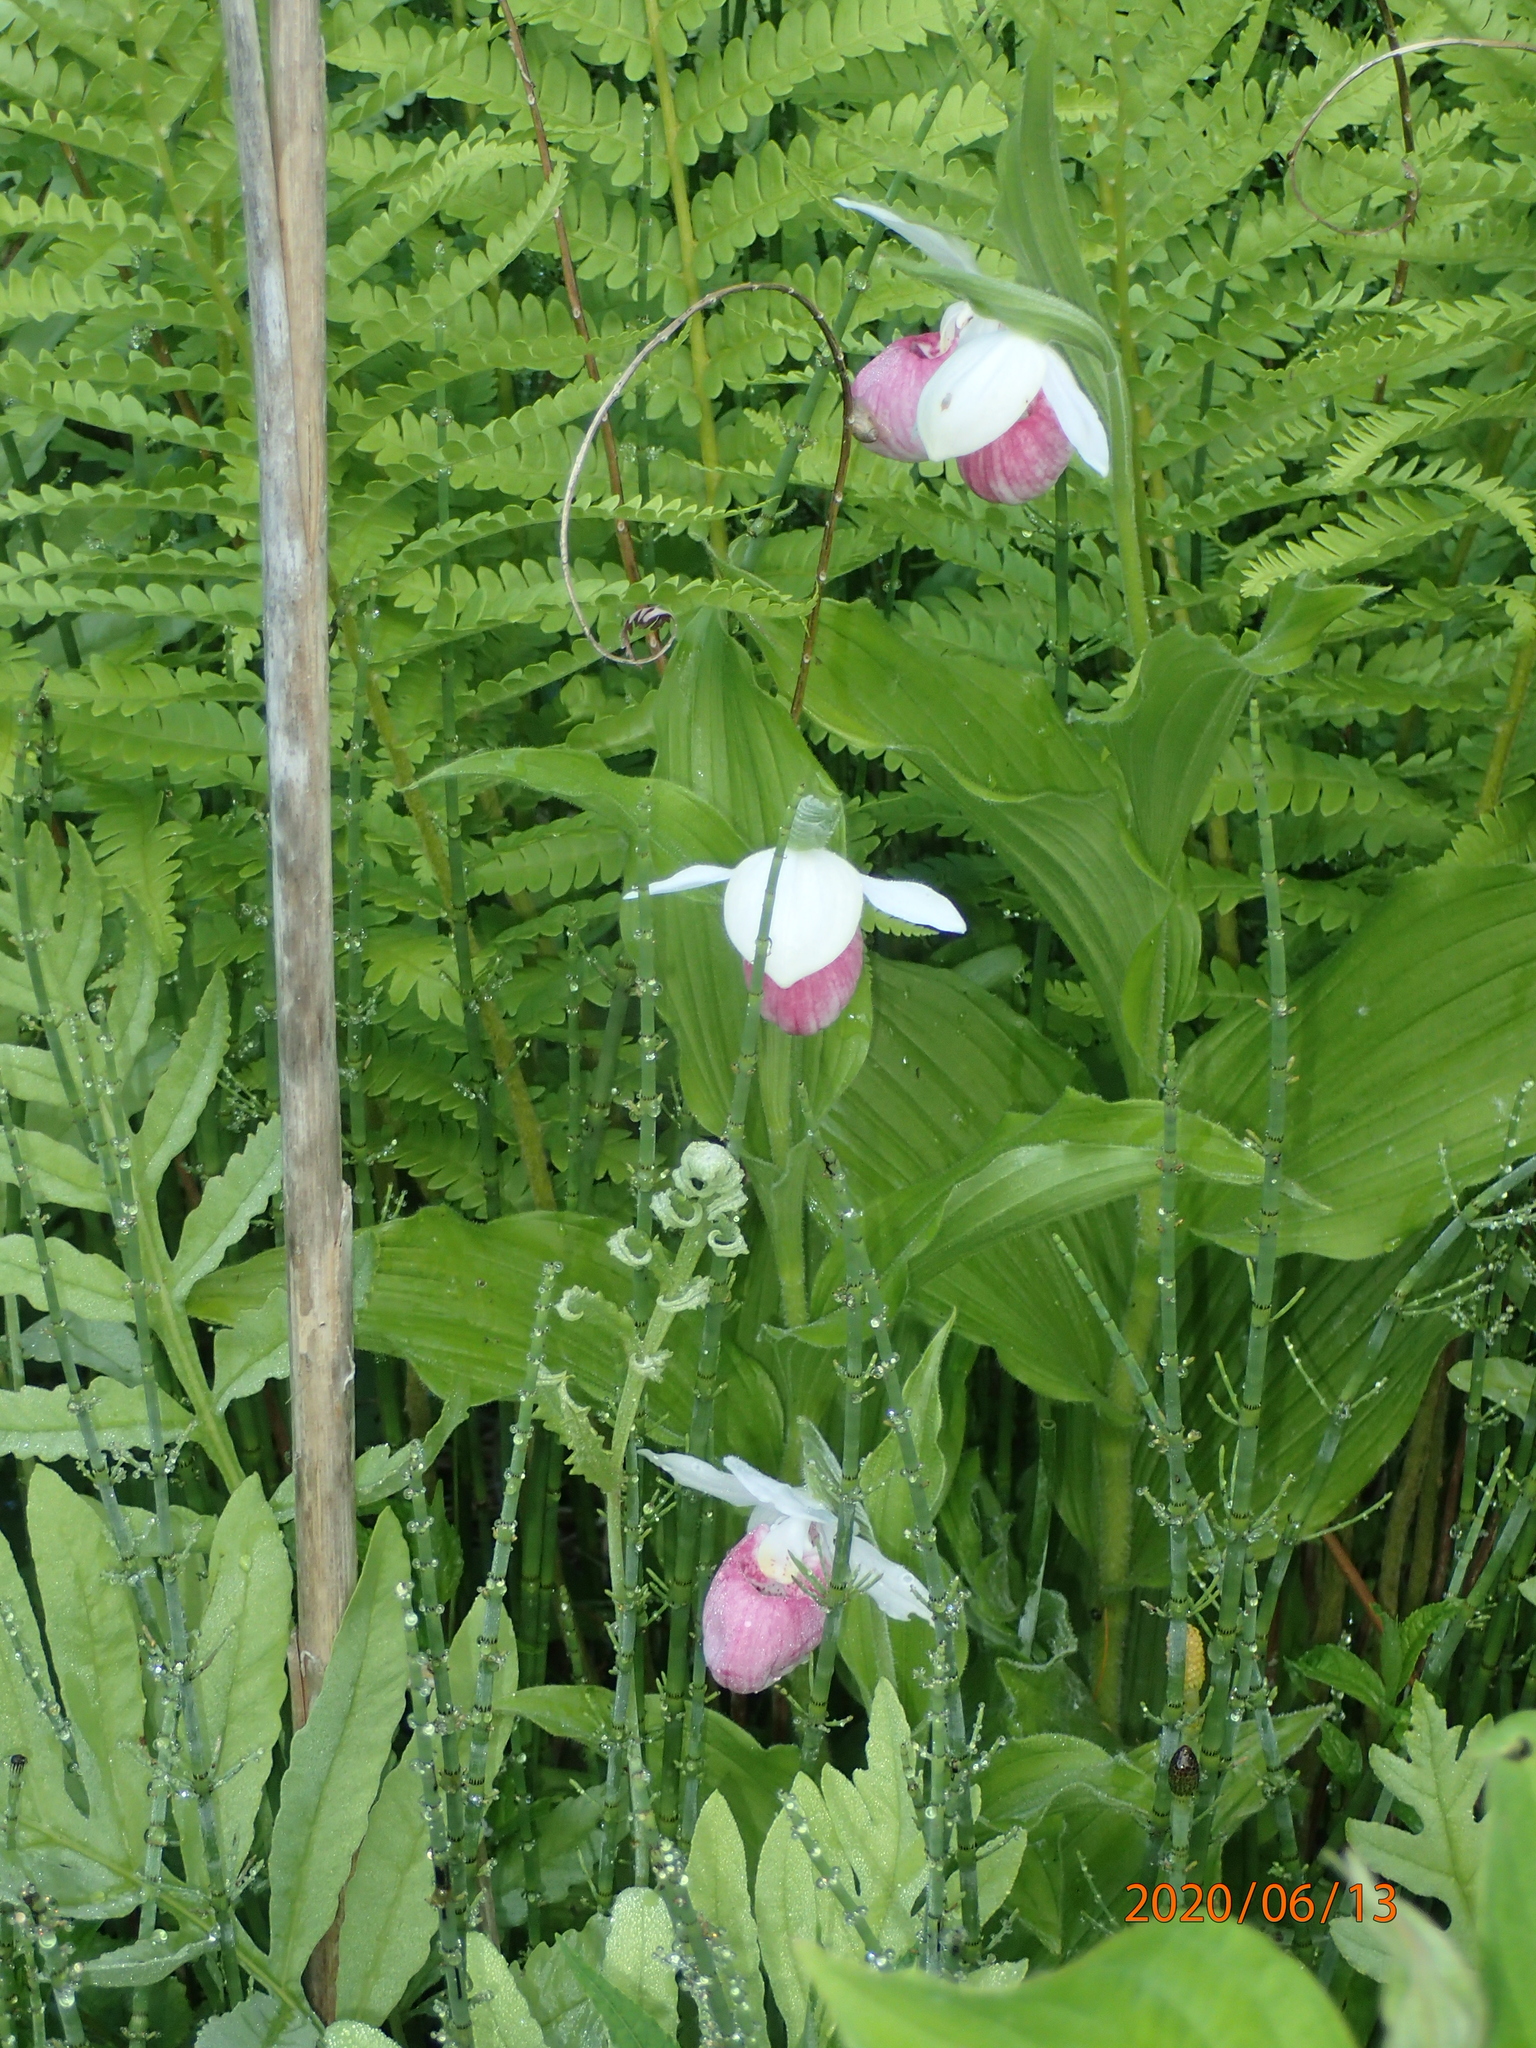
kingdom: Plantae
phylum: Tracheophyta
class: Liliopsida
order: Asparagales
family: Orchidaceae
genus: Cypripedium
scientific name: Cypripedium reginae
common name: Queen lady's-slipper
